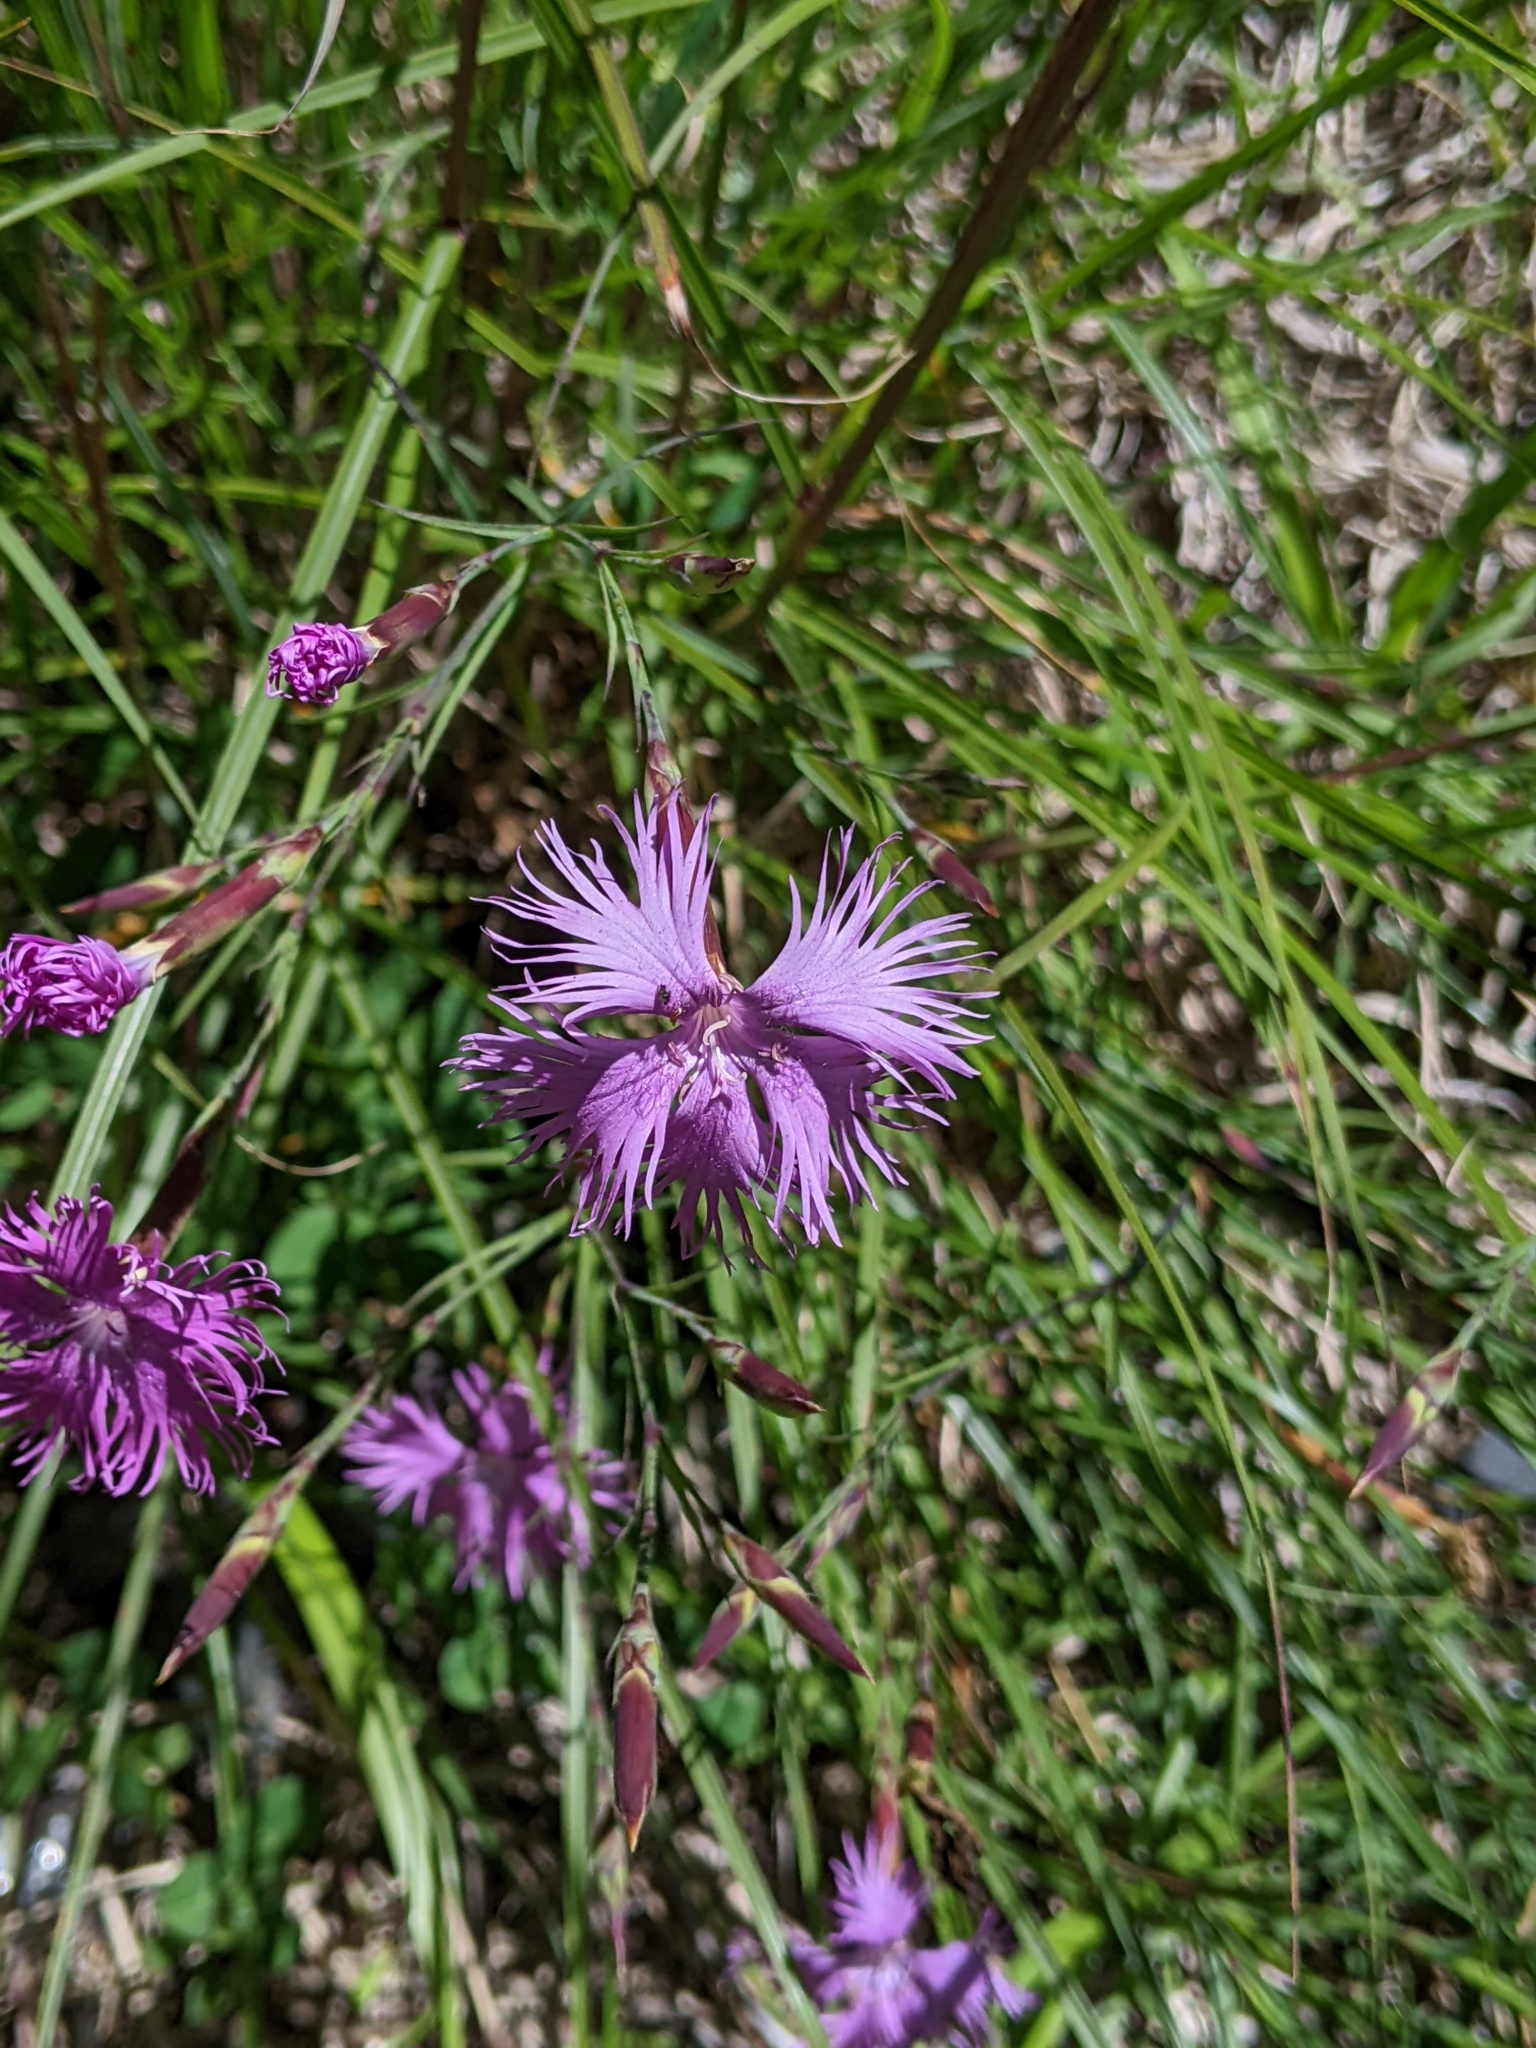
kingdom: Plantae
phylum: Tracheophyta
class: Magnoliopsida
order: Caryophyllales
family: Caryophyllaceae
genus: Dianthus
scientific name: Dianthus pygmaeus
